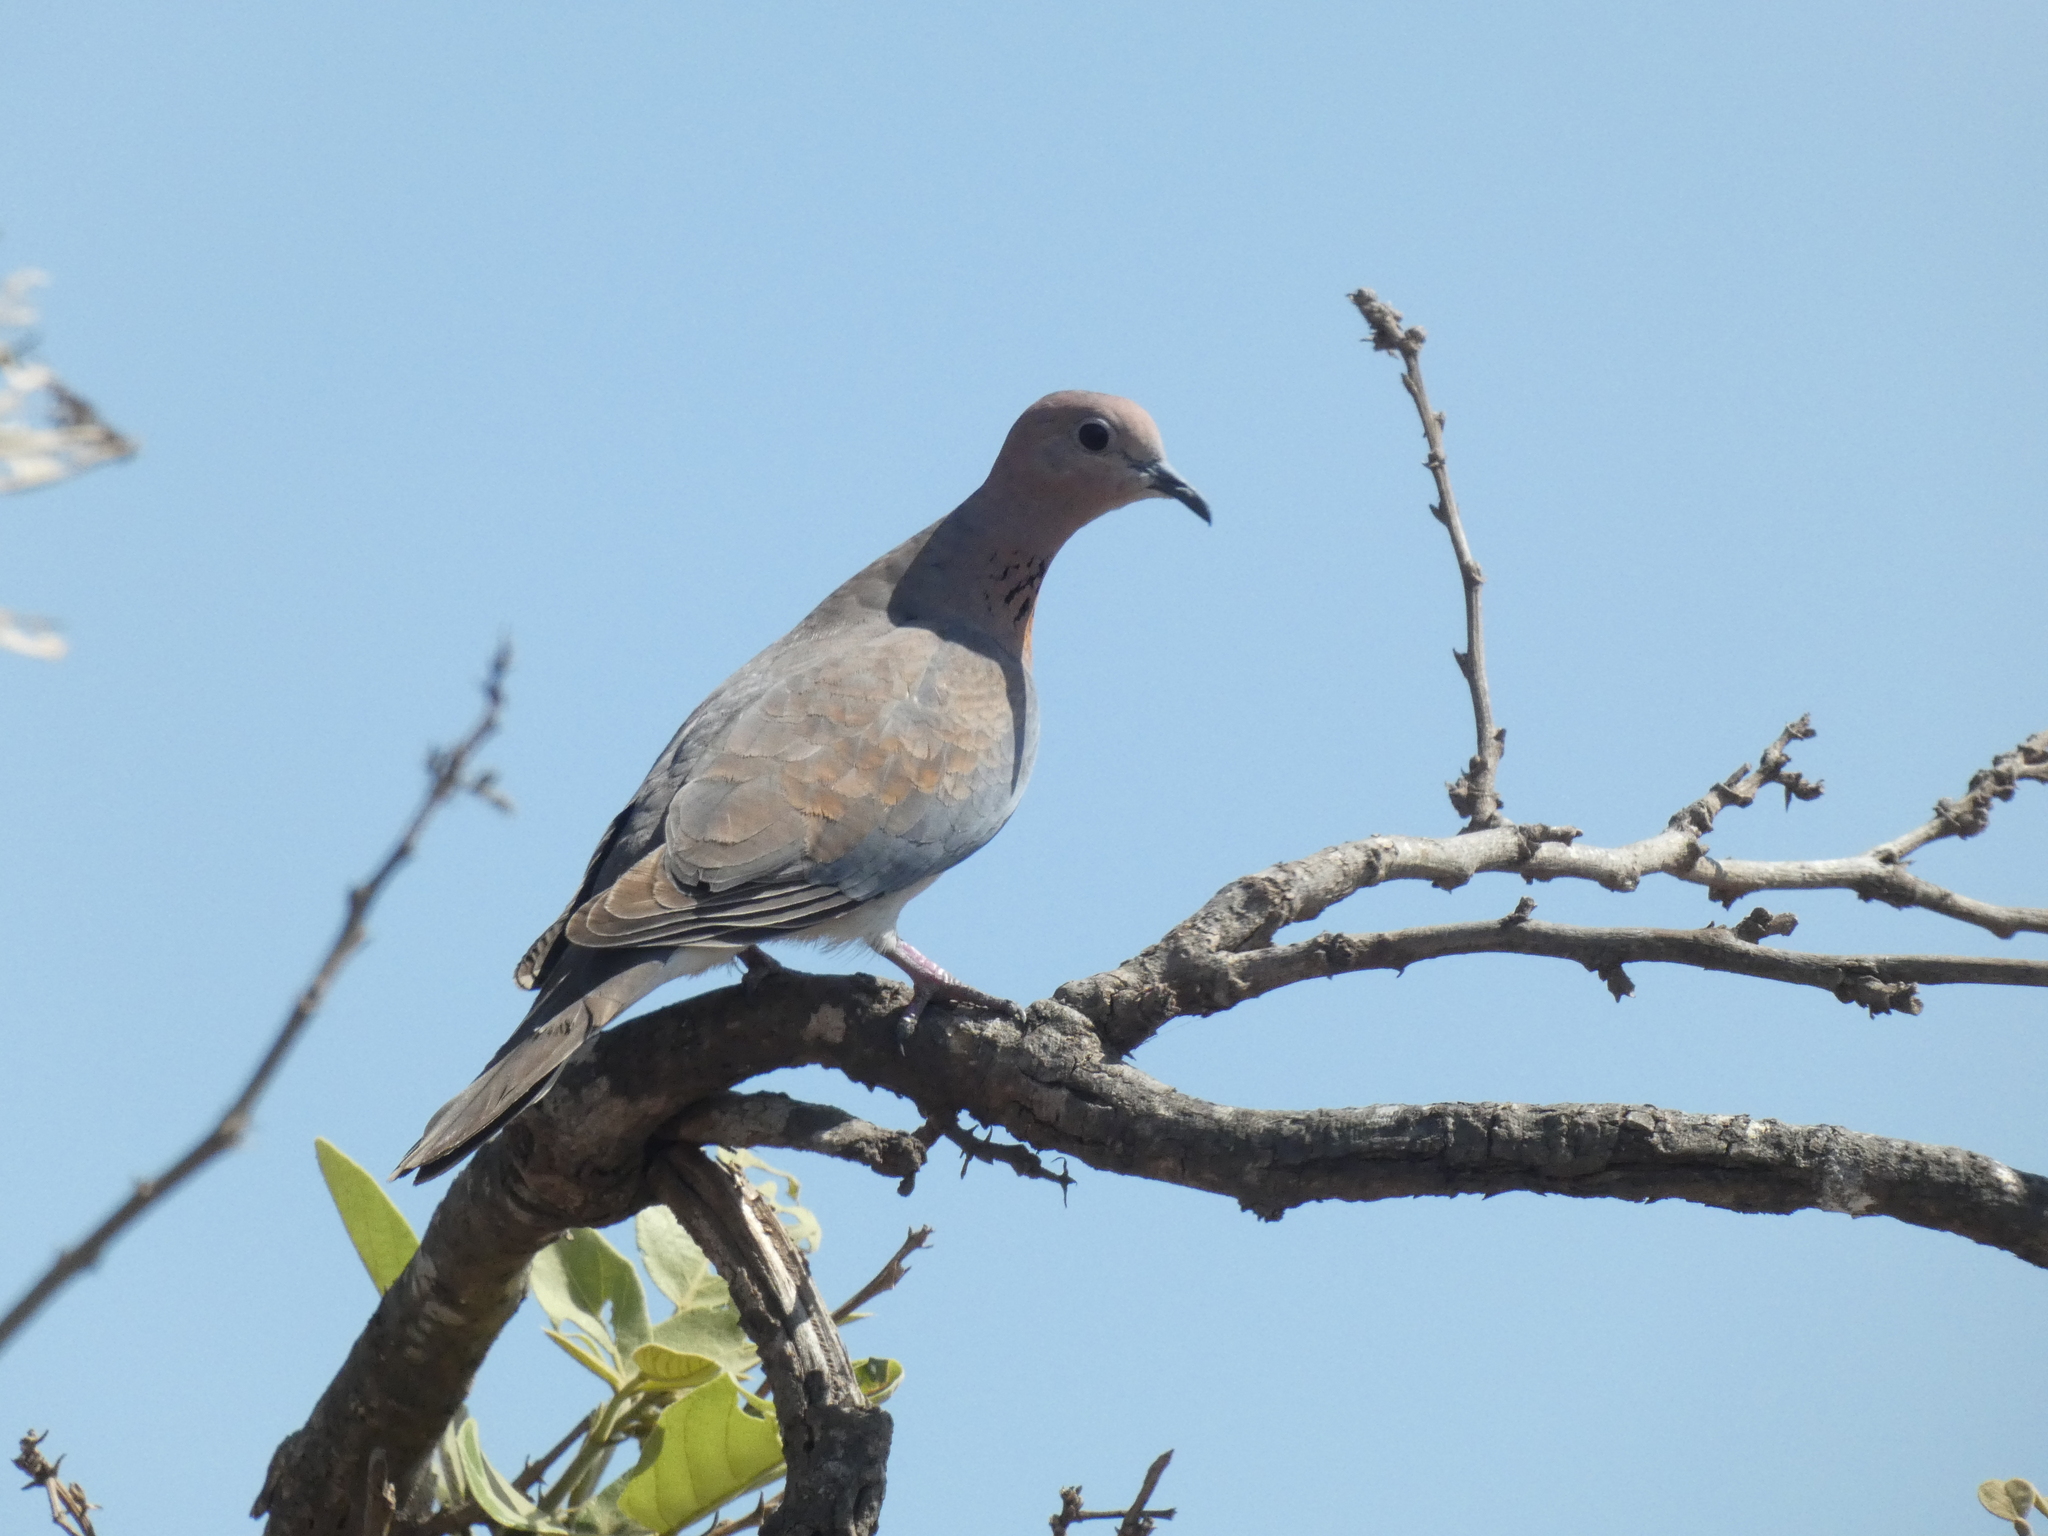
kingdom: Animalia
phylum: Chordata
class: Aves
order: Columbiformes
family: Columbidae
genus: Spilopelia
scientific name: Spilopelia senegalensis
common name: Laughing dove
